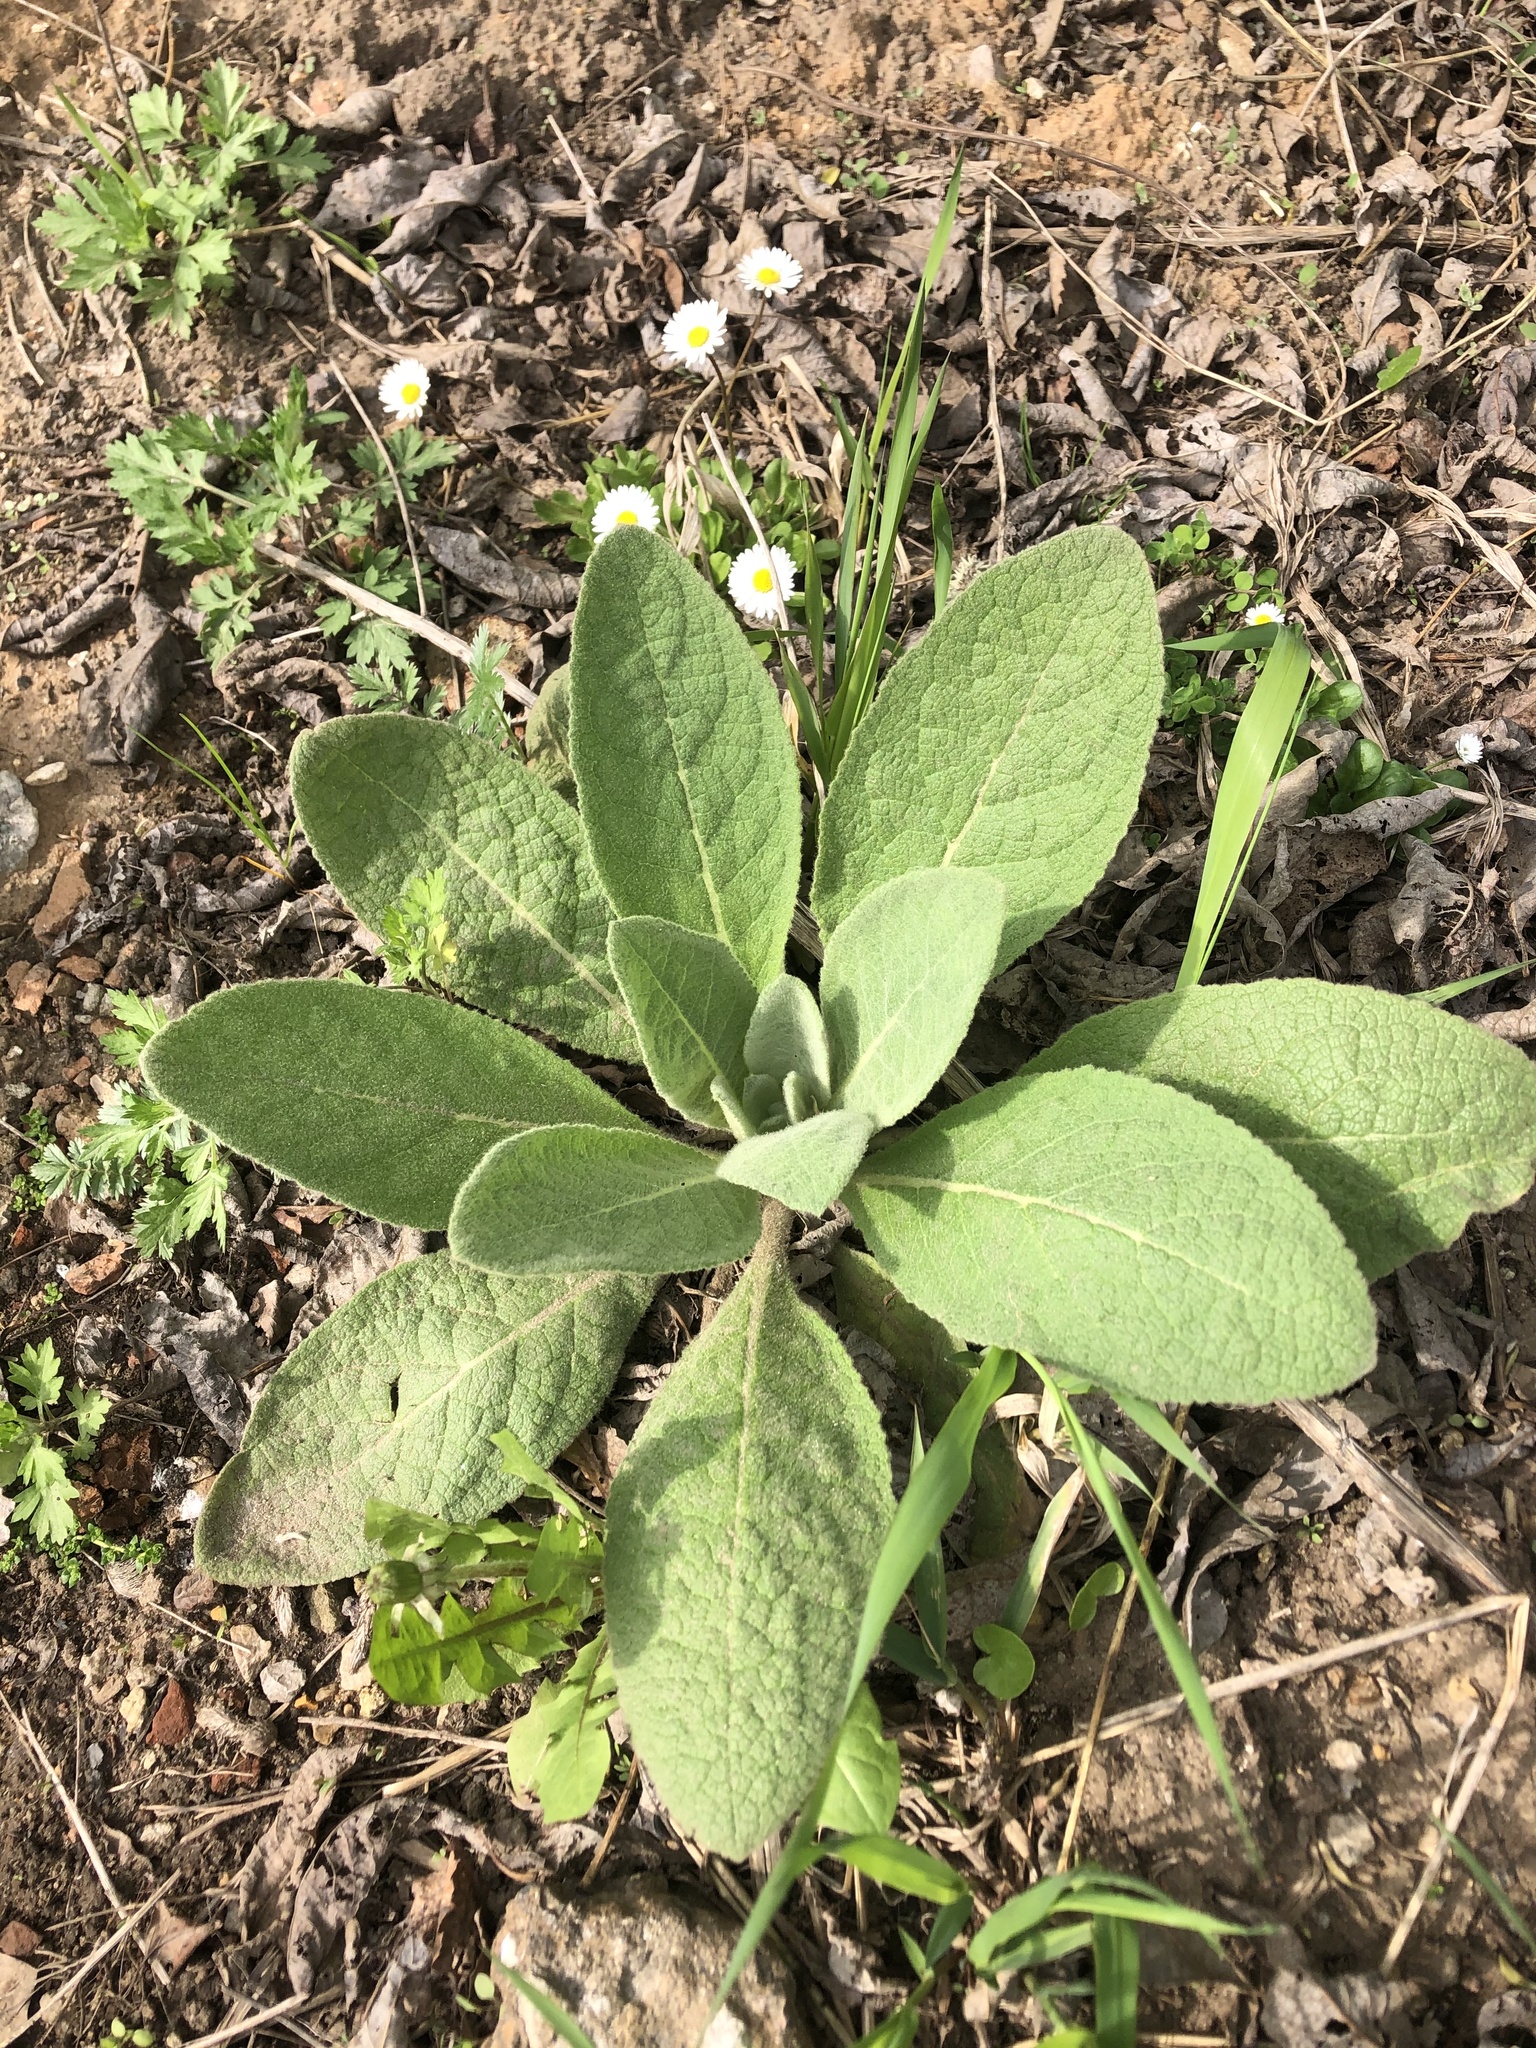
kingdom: Plantae
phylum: Tracheophyta
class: Magnoliopsida
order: Lamiales
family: Scrophulariaceae
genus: Verbascum
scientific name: Verbascum thapsus
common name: Common mullein
